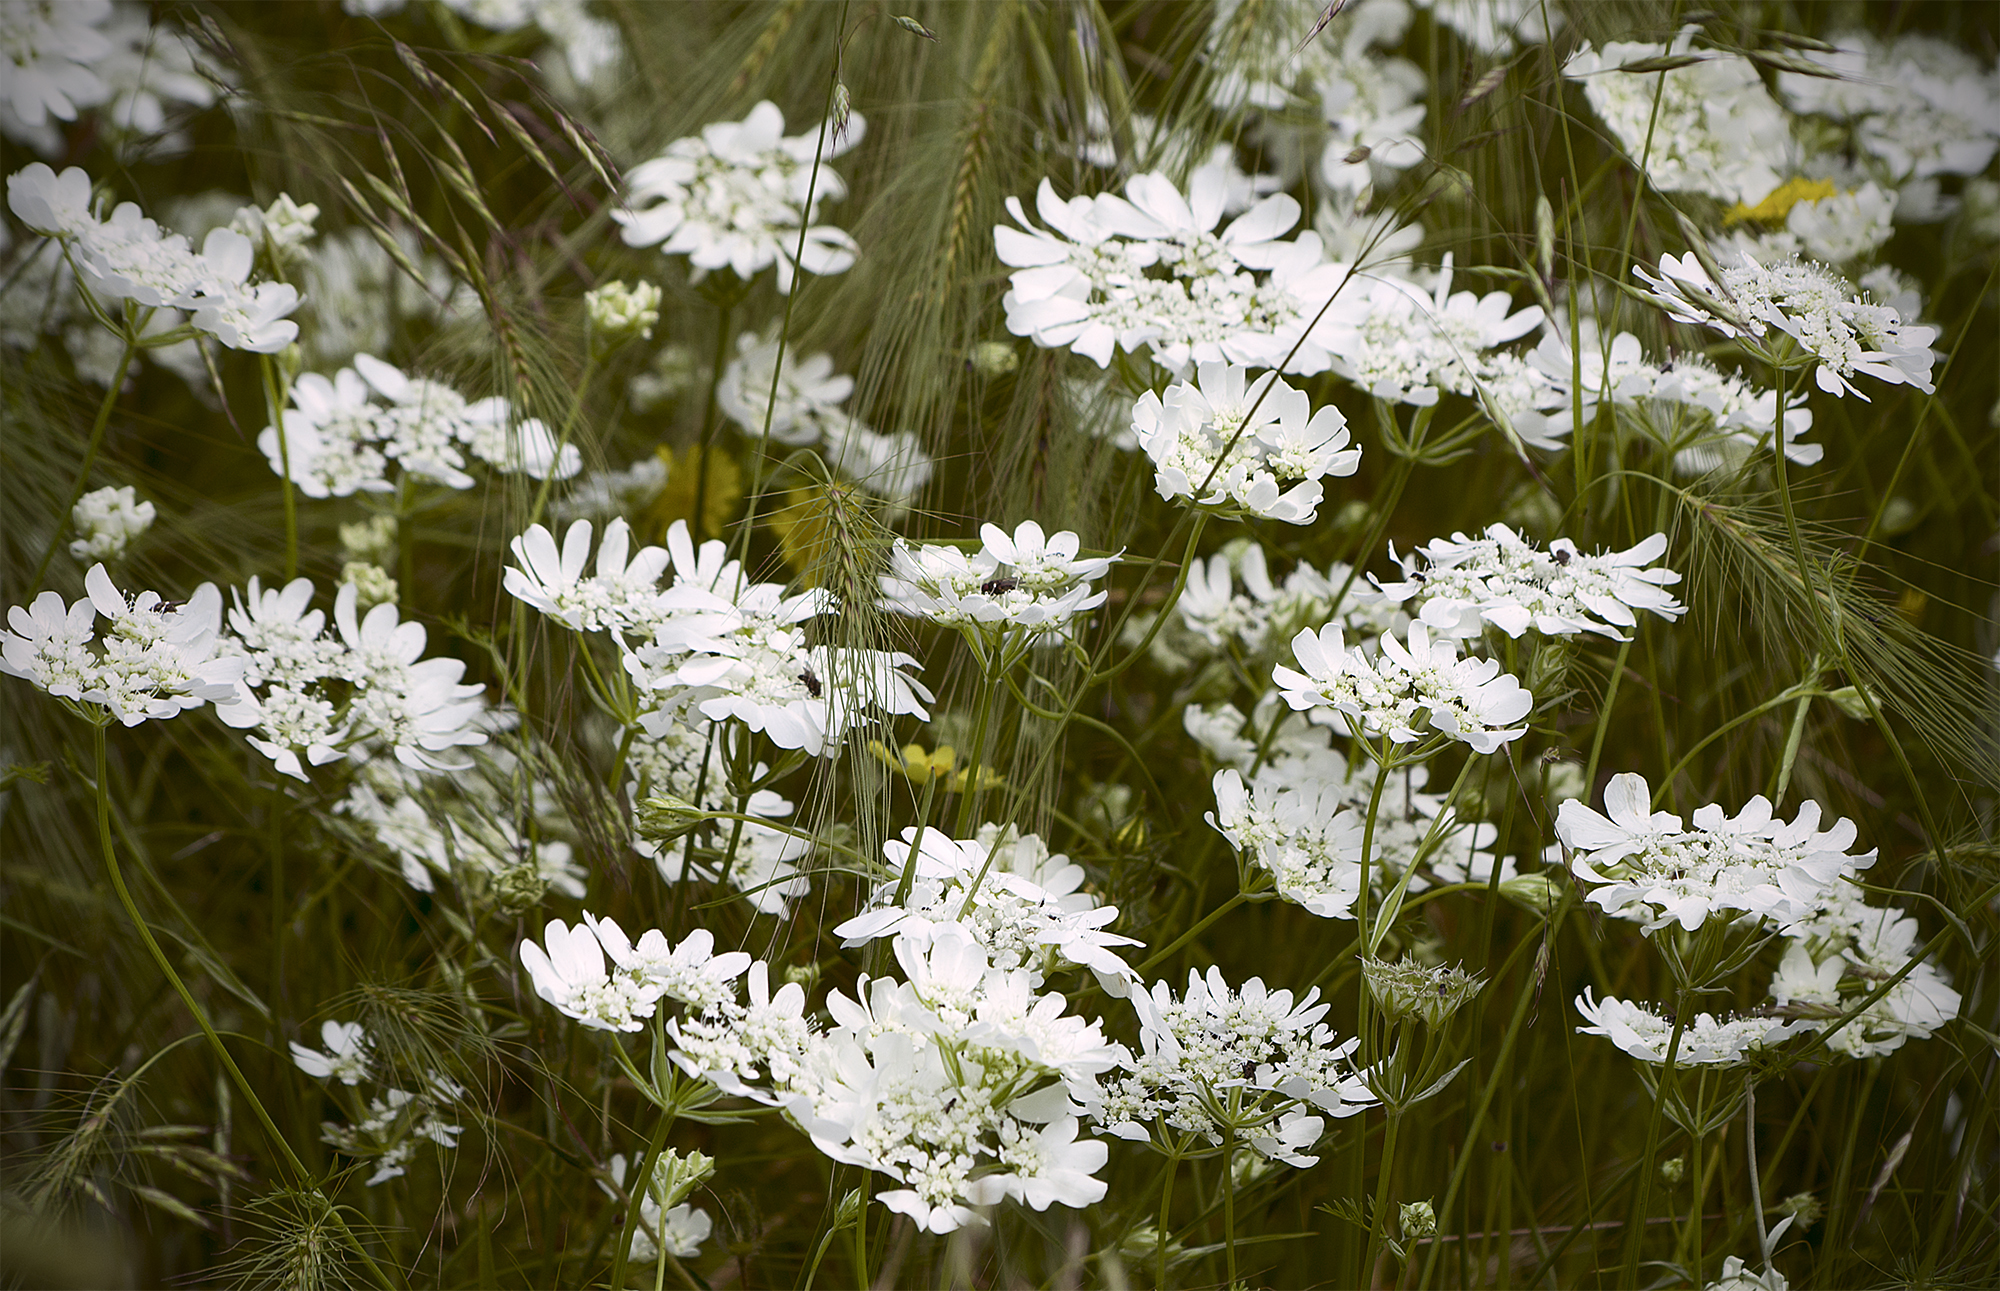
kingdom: Plantae
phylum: Tracheophyta
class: Magnoliopsida
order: Apiales
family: Apiaceae
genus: Orlaya
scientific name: Orlaya grandiflora
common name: White lace flower
